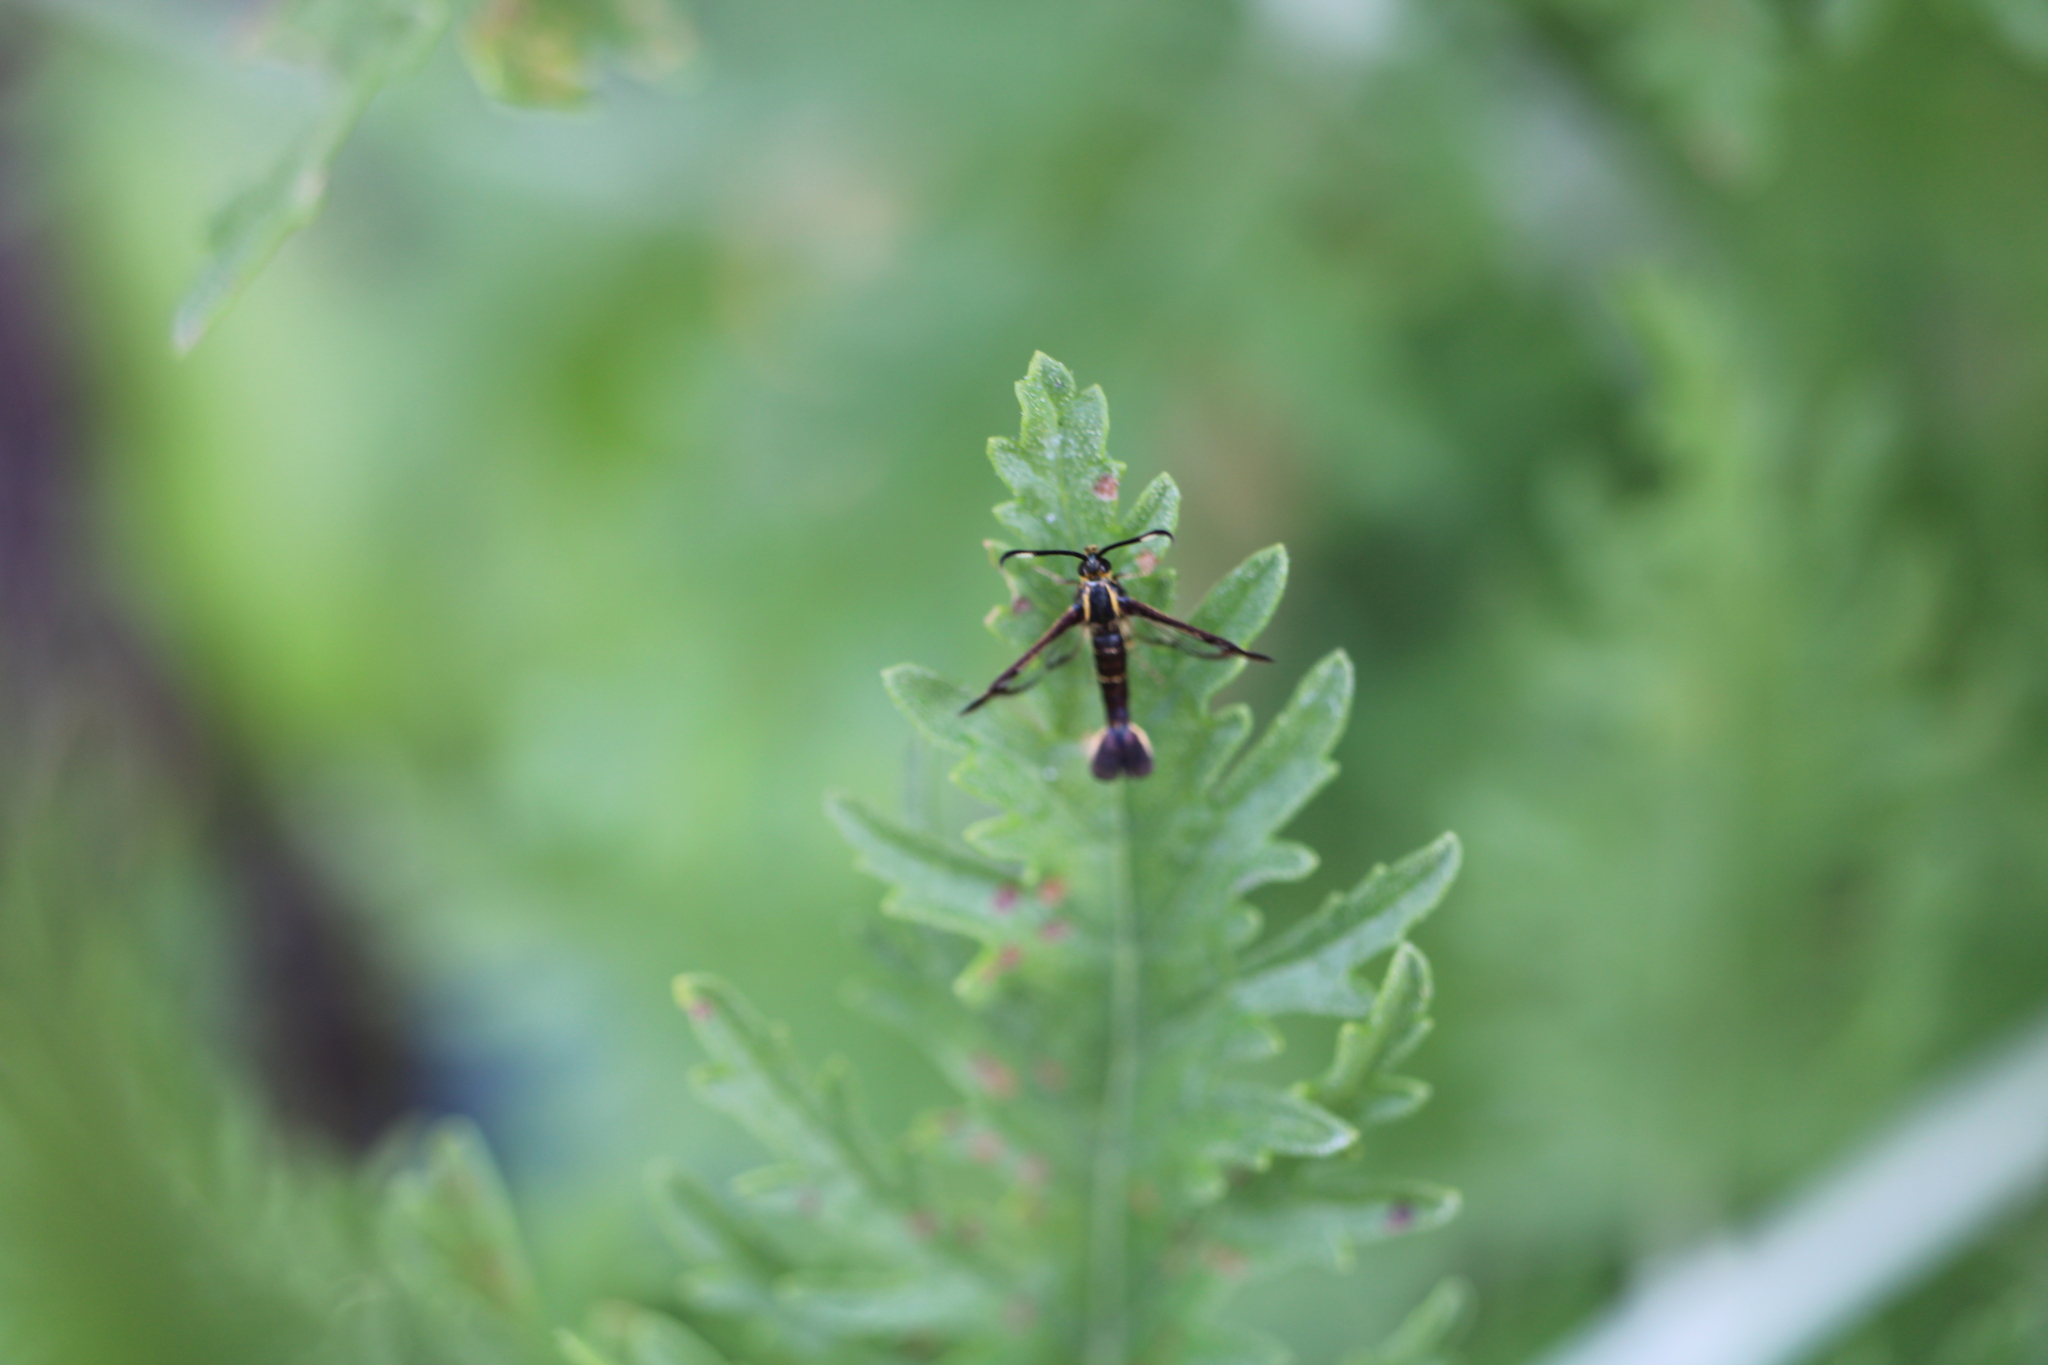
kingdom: Animalia
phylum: Arthropoda
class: Insecta
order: Lepidoptera
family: Sesiidae
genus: Carmenta
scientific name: Carmenta ithacae
